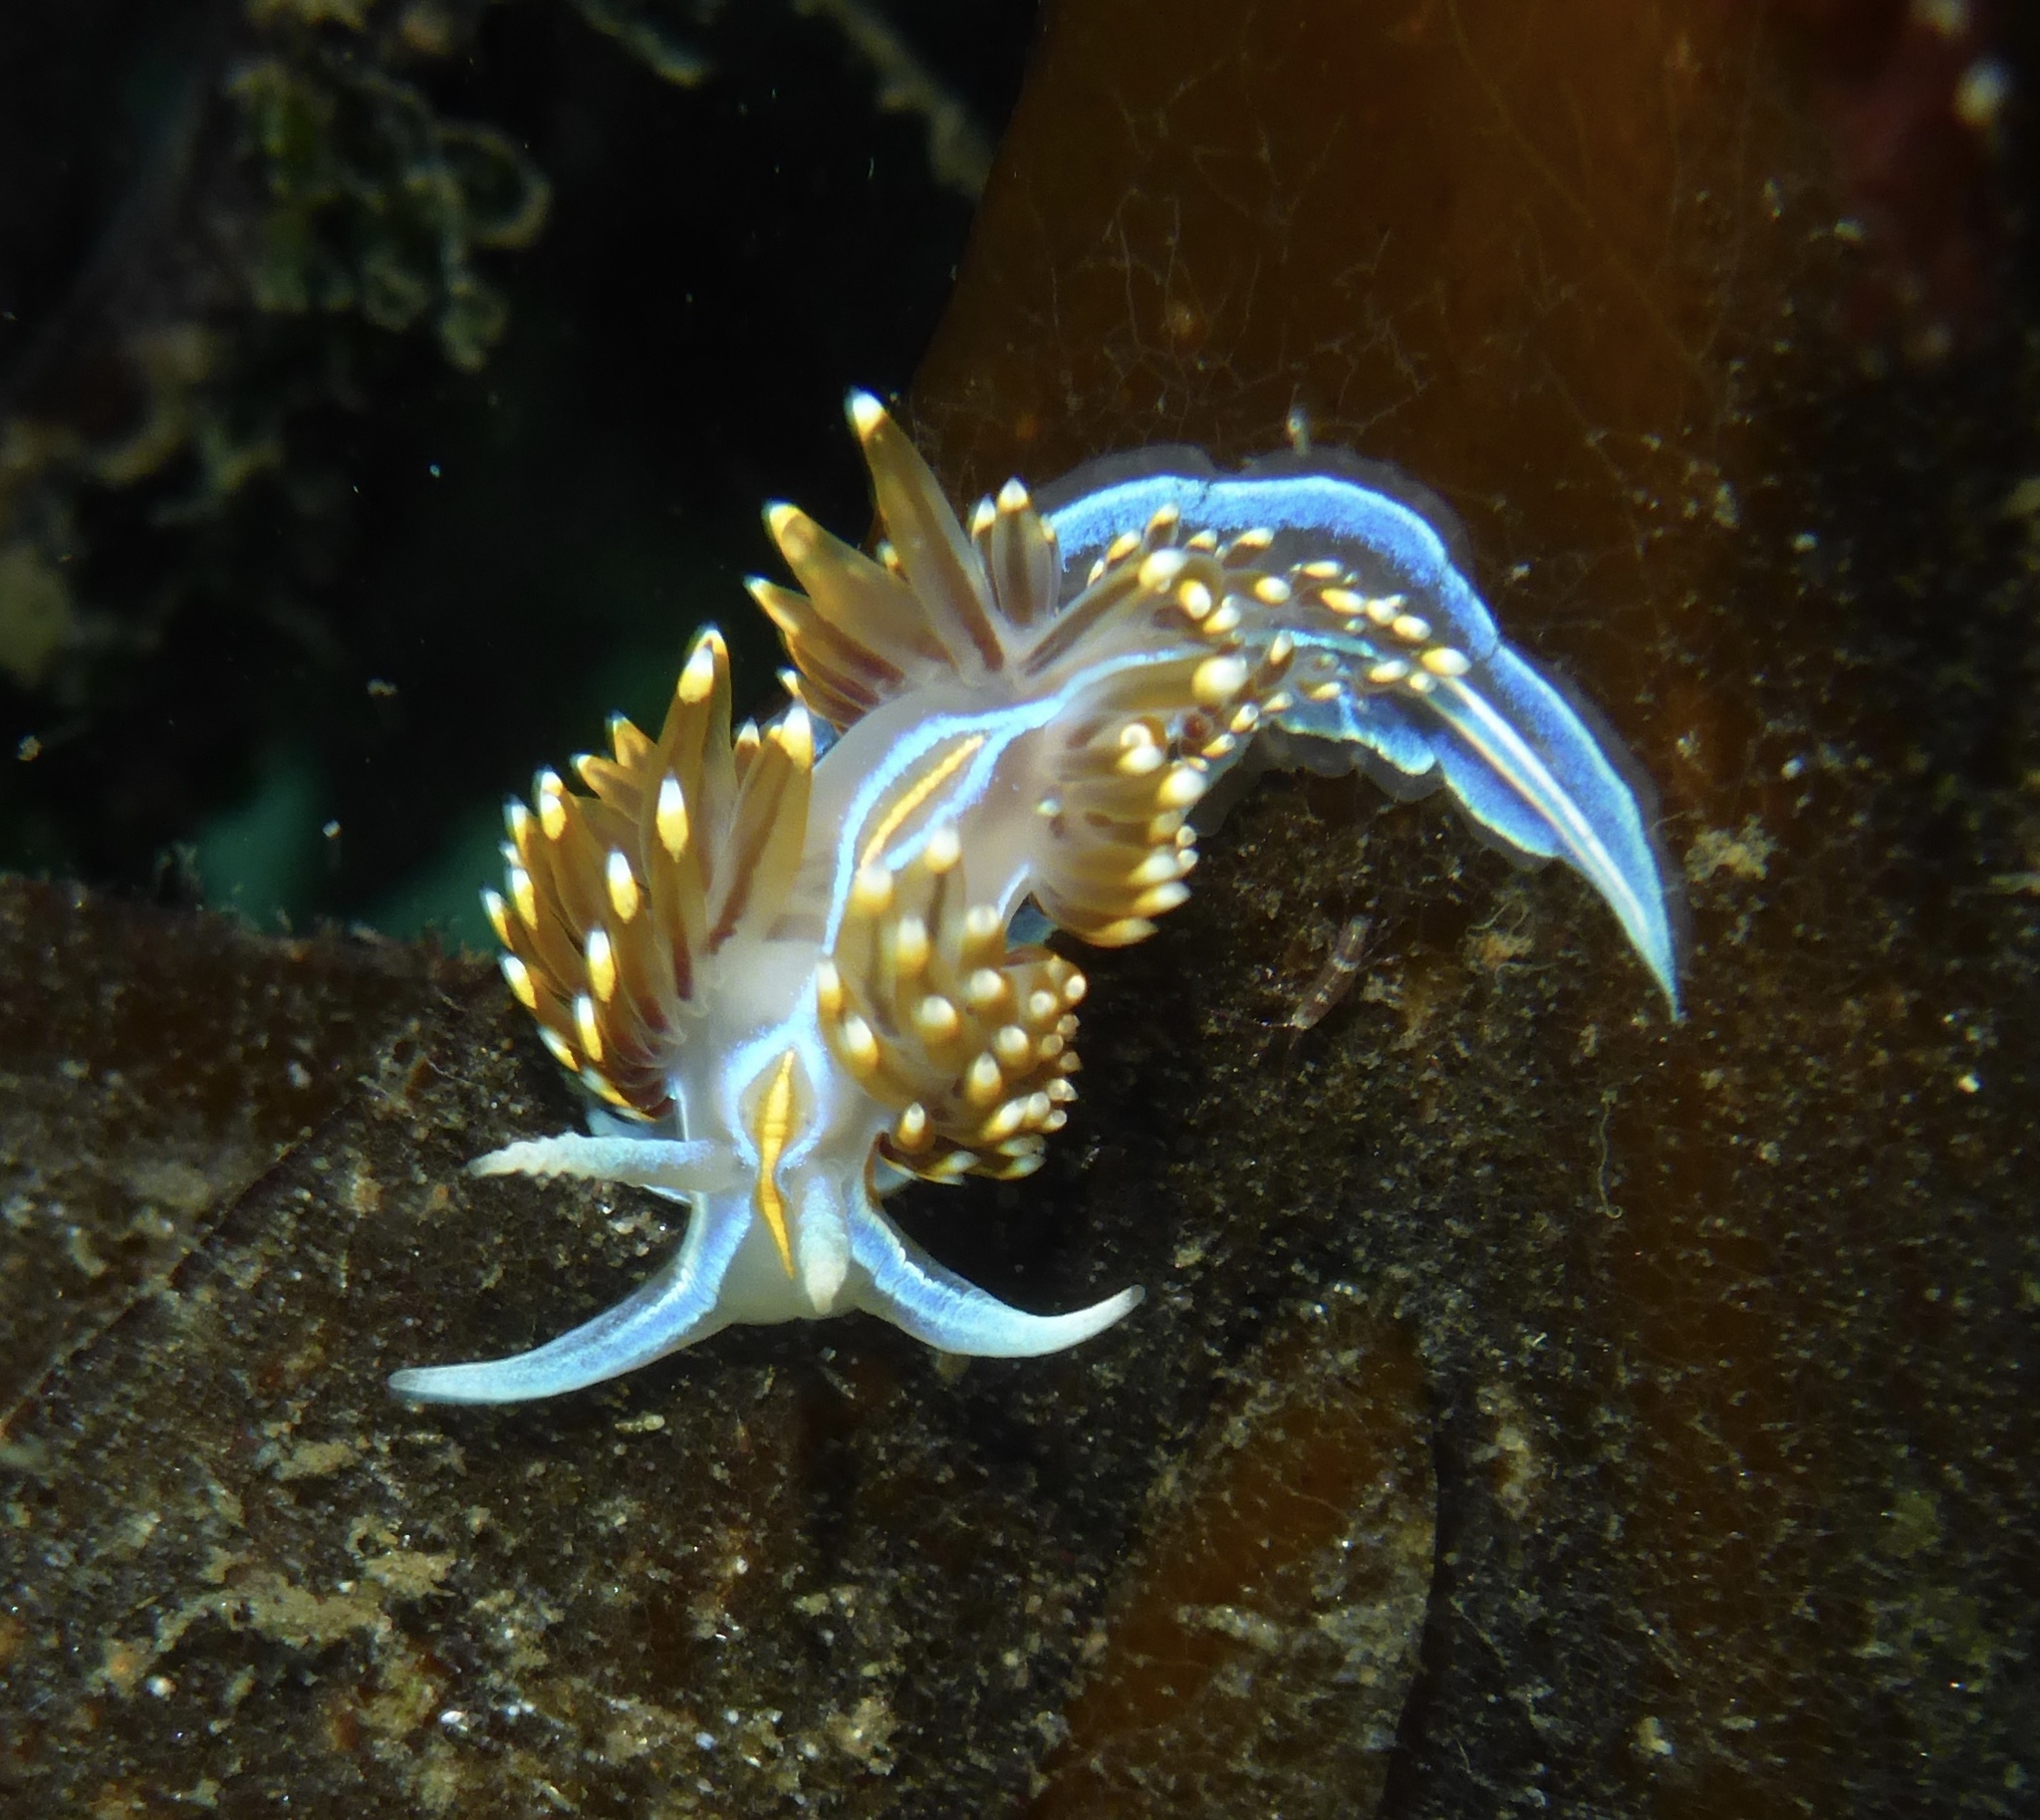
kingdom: Animalia
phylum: Mollusca
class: Gastropoda
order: Nudibranchia
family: Myrrhinidae
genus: Hermissenda
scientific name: Hermissenda opalescens
